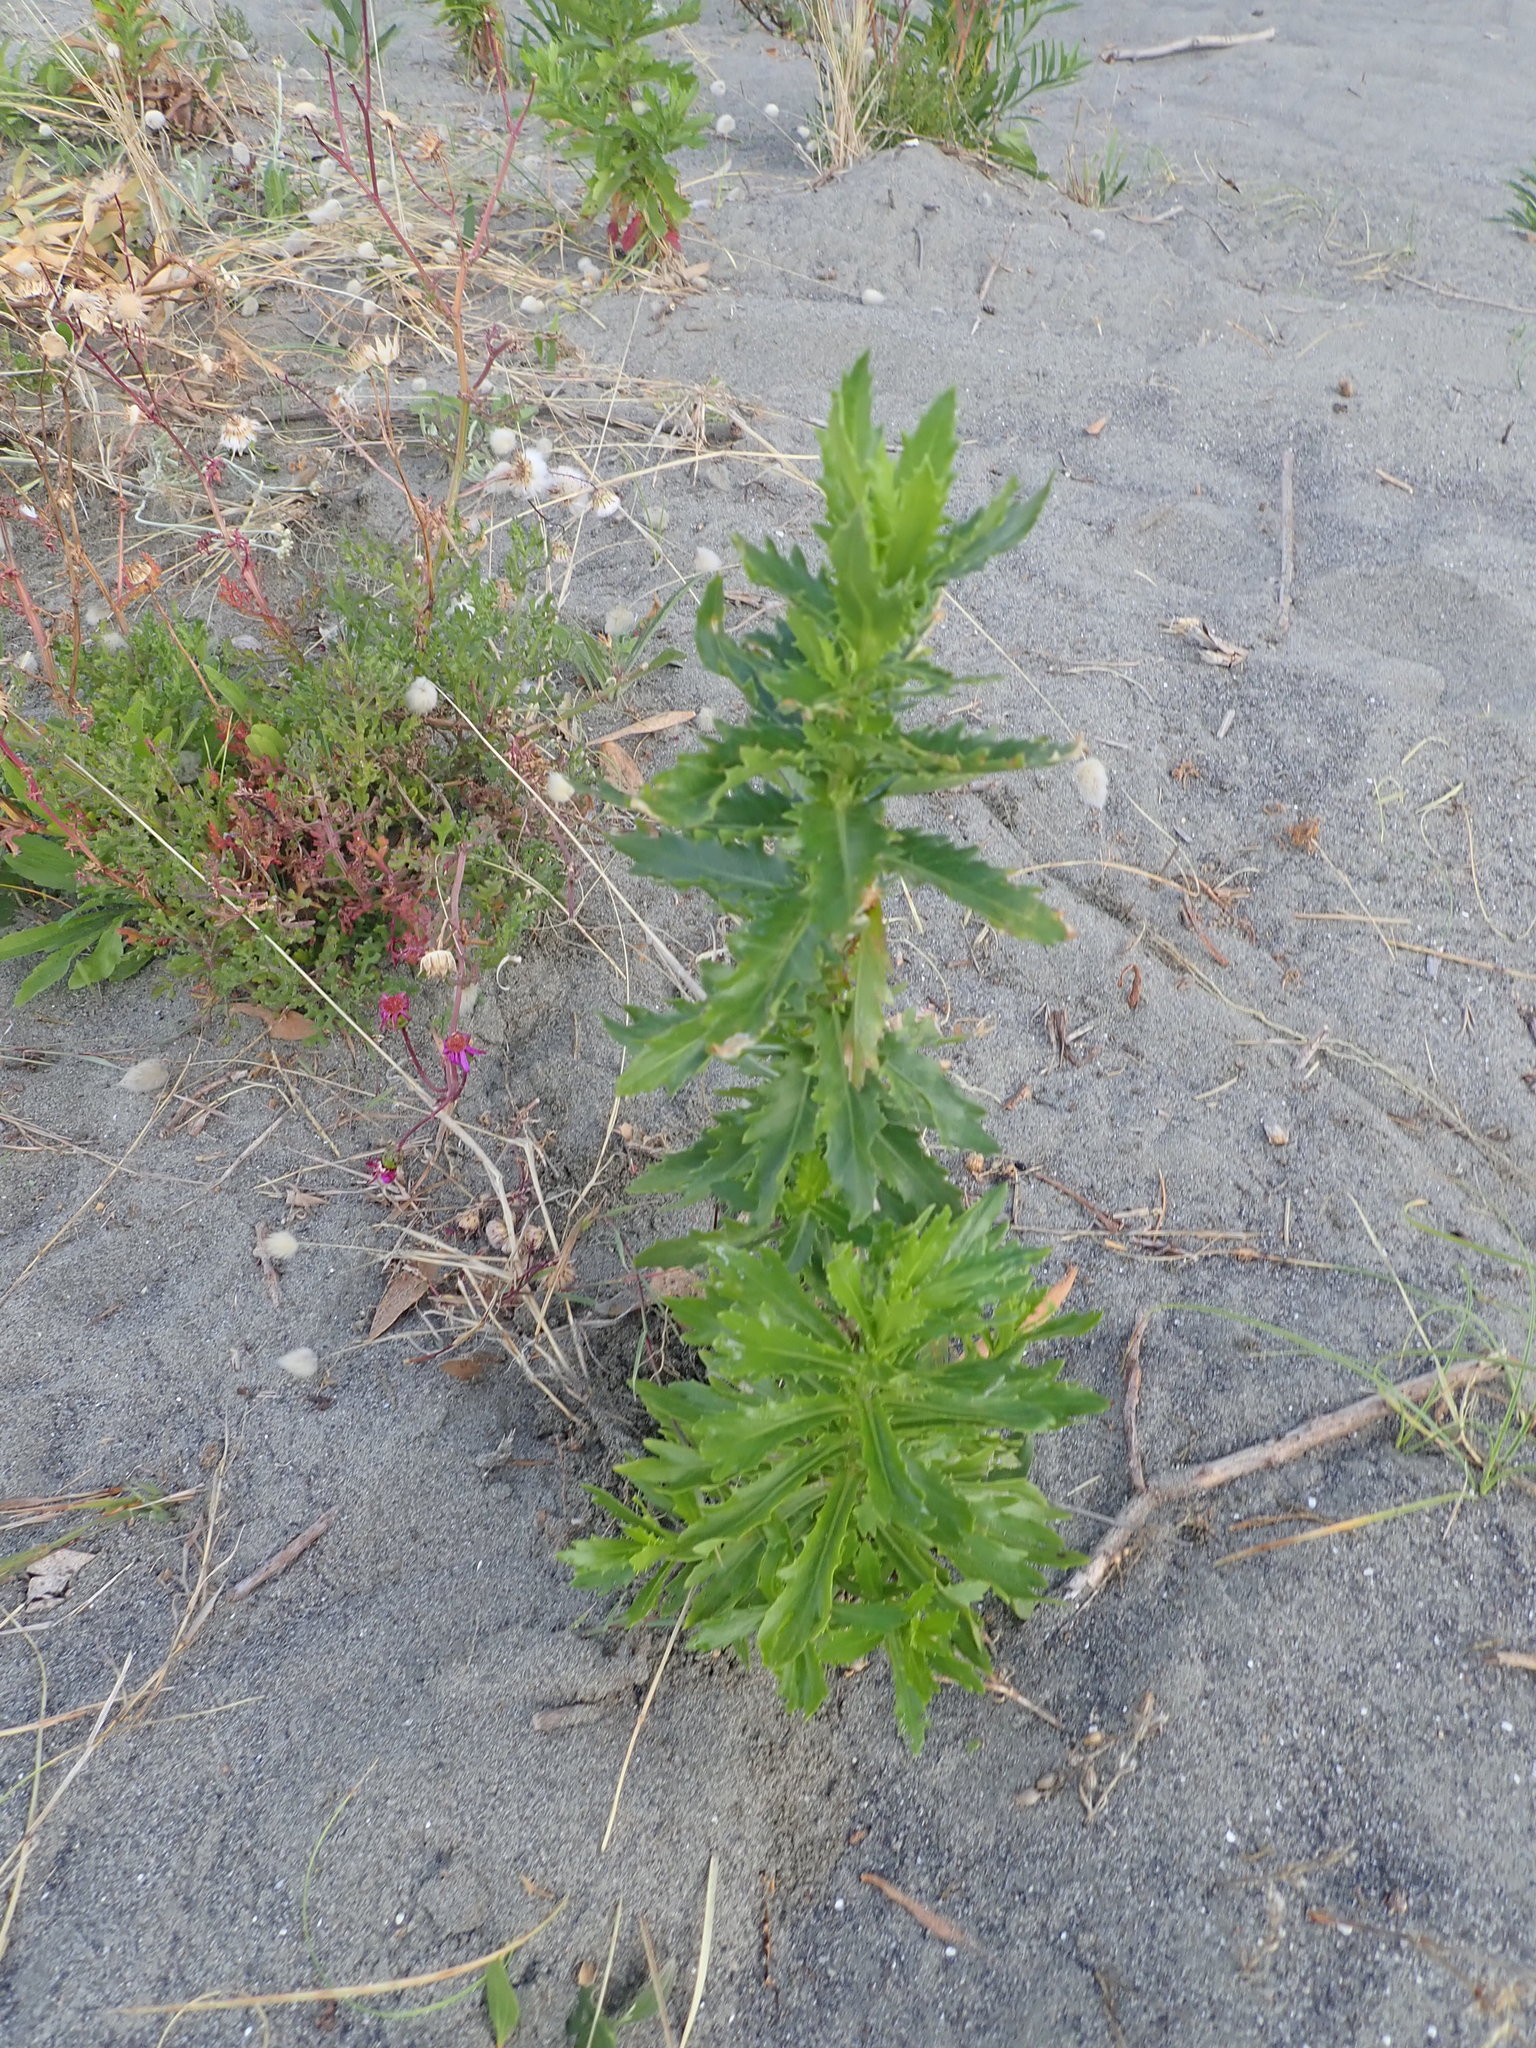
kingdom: Plantae
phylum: Tracheophyta
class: Magnoliopsida
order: Asterales
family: Asteraceae
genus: Senecio
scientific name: Senecio glastifolius
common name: Woad-leaved ragwort
